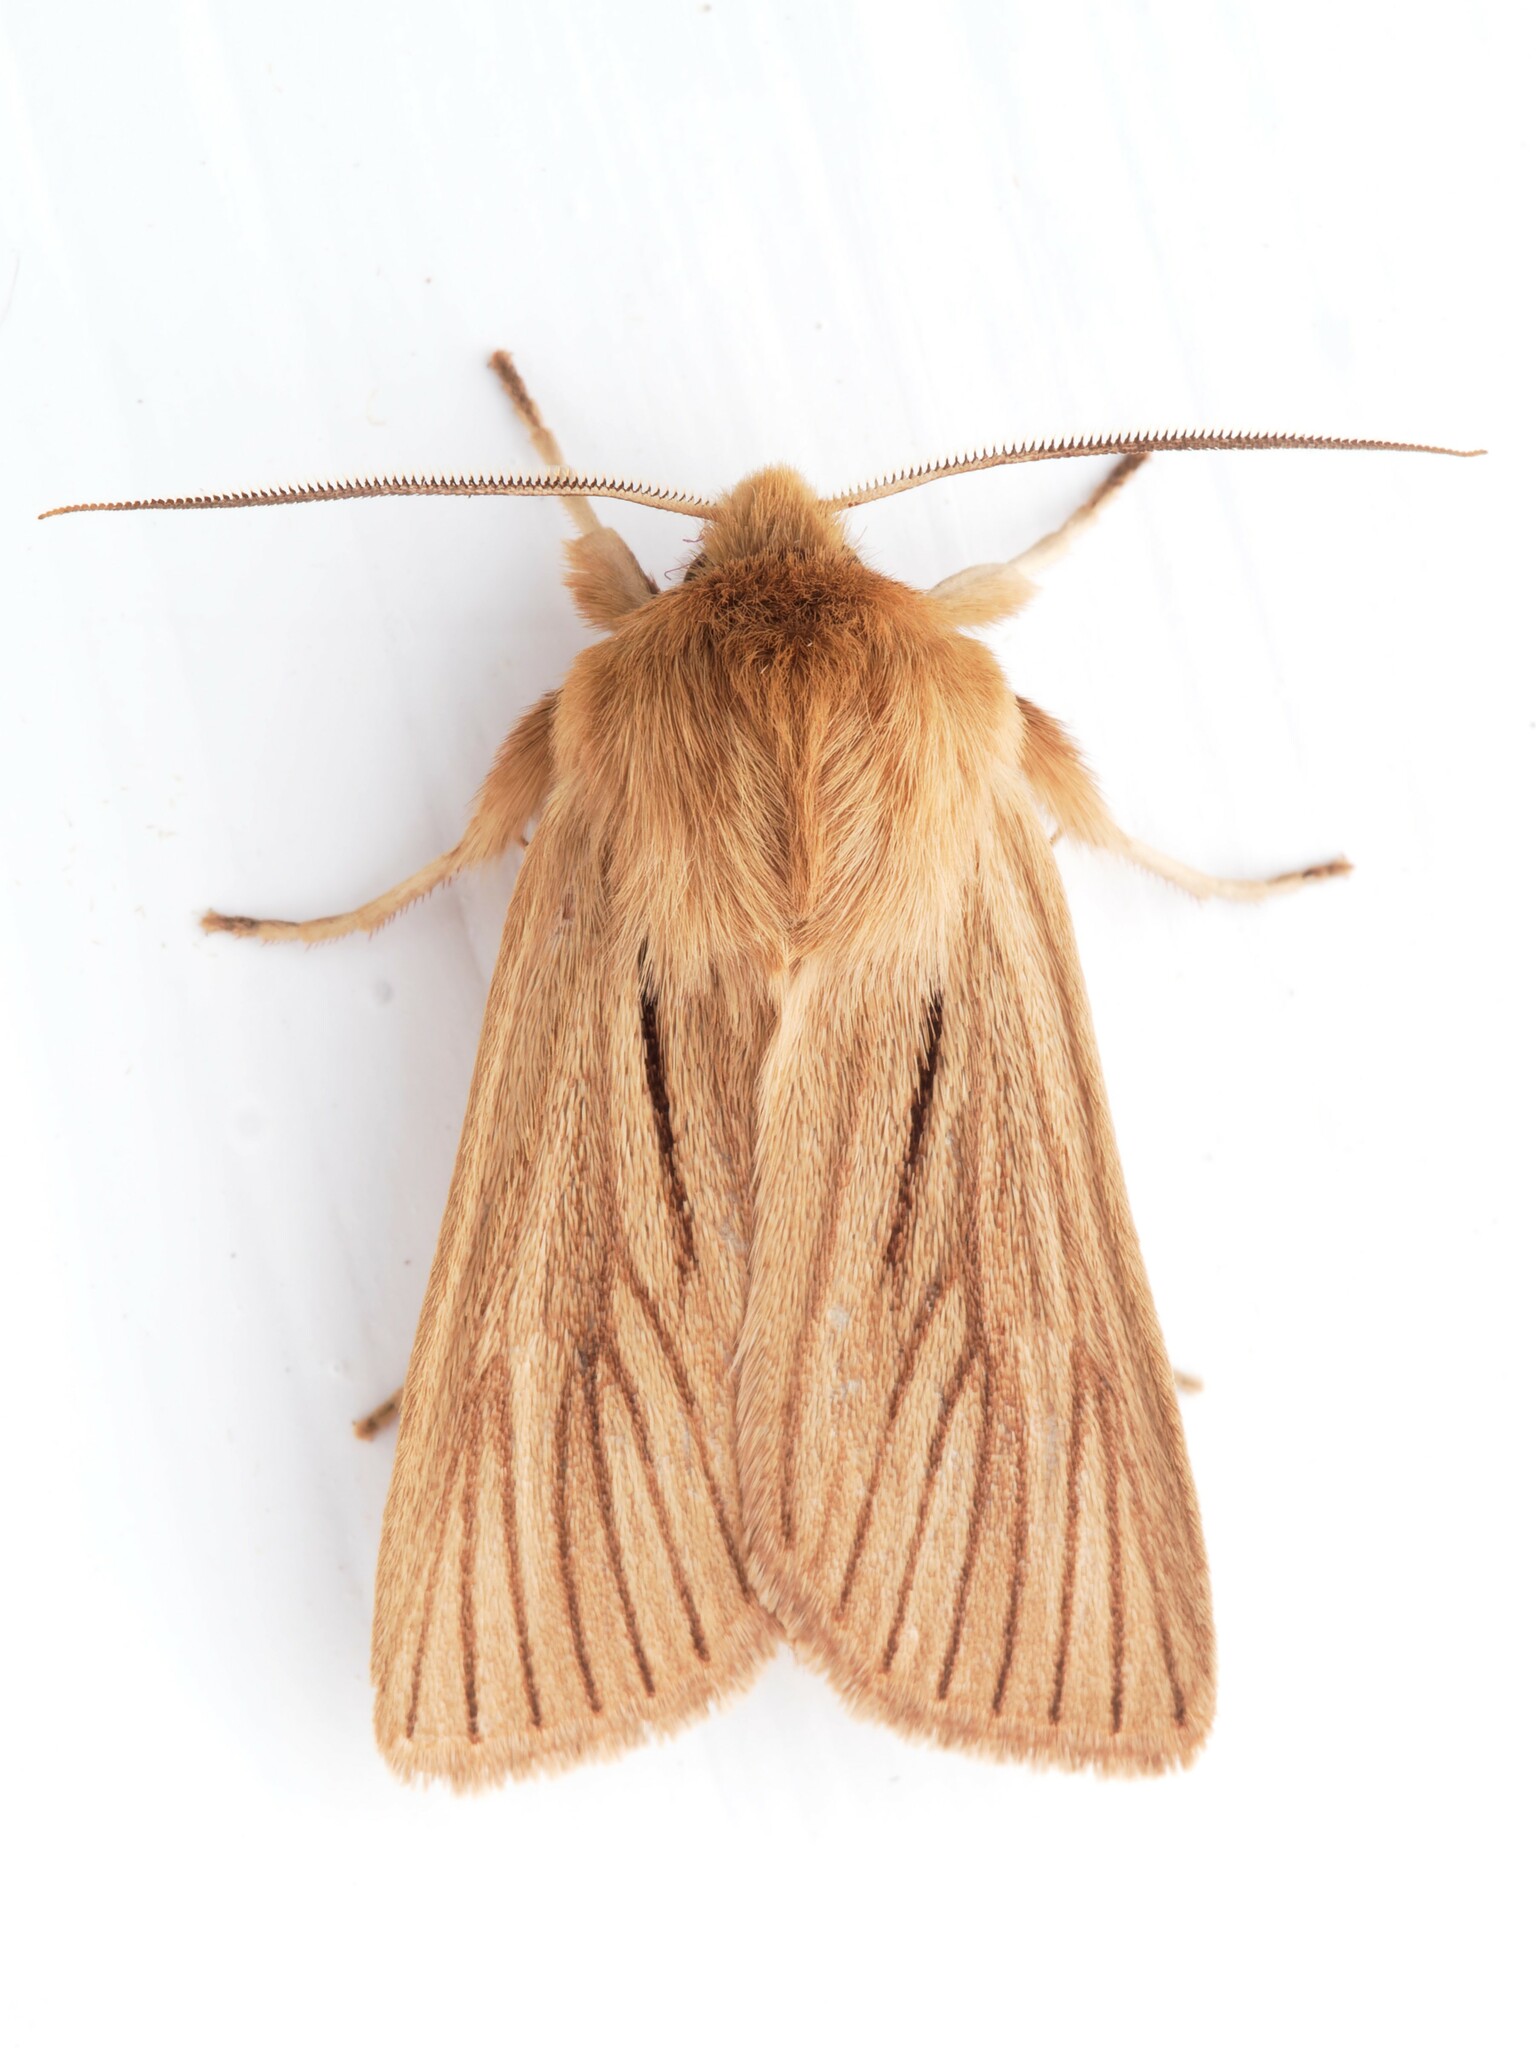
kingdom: Animalia
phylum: Arthropoda
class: Insecta
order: Lepidoptera
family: Noctuidae
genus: Ichneutica
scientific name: Ichneutica
